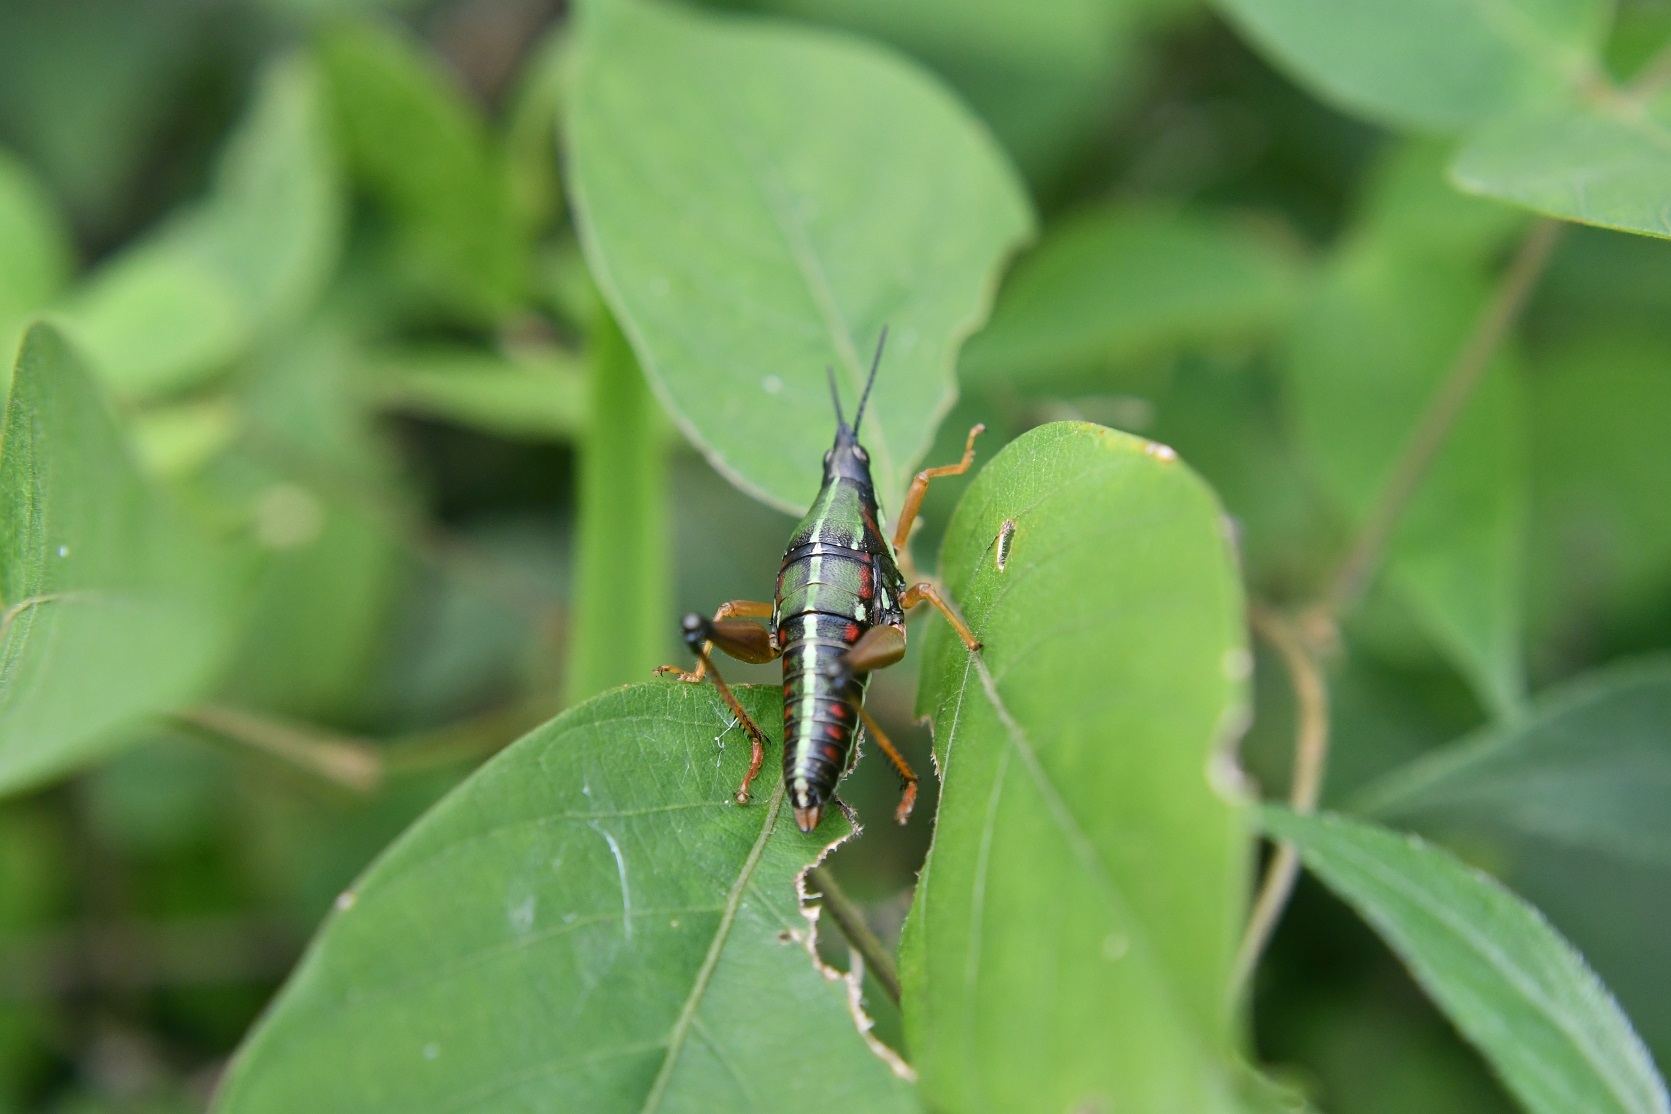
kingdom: Animalia
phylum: Arthropoda
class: Insecta
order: Orthoptera
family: Pyrgomorphidae
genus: Sphenarium
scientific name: Sphenarium histrio
